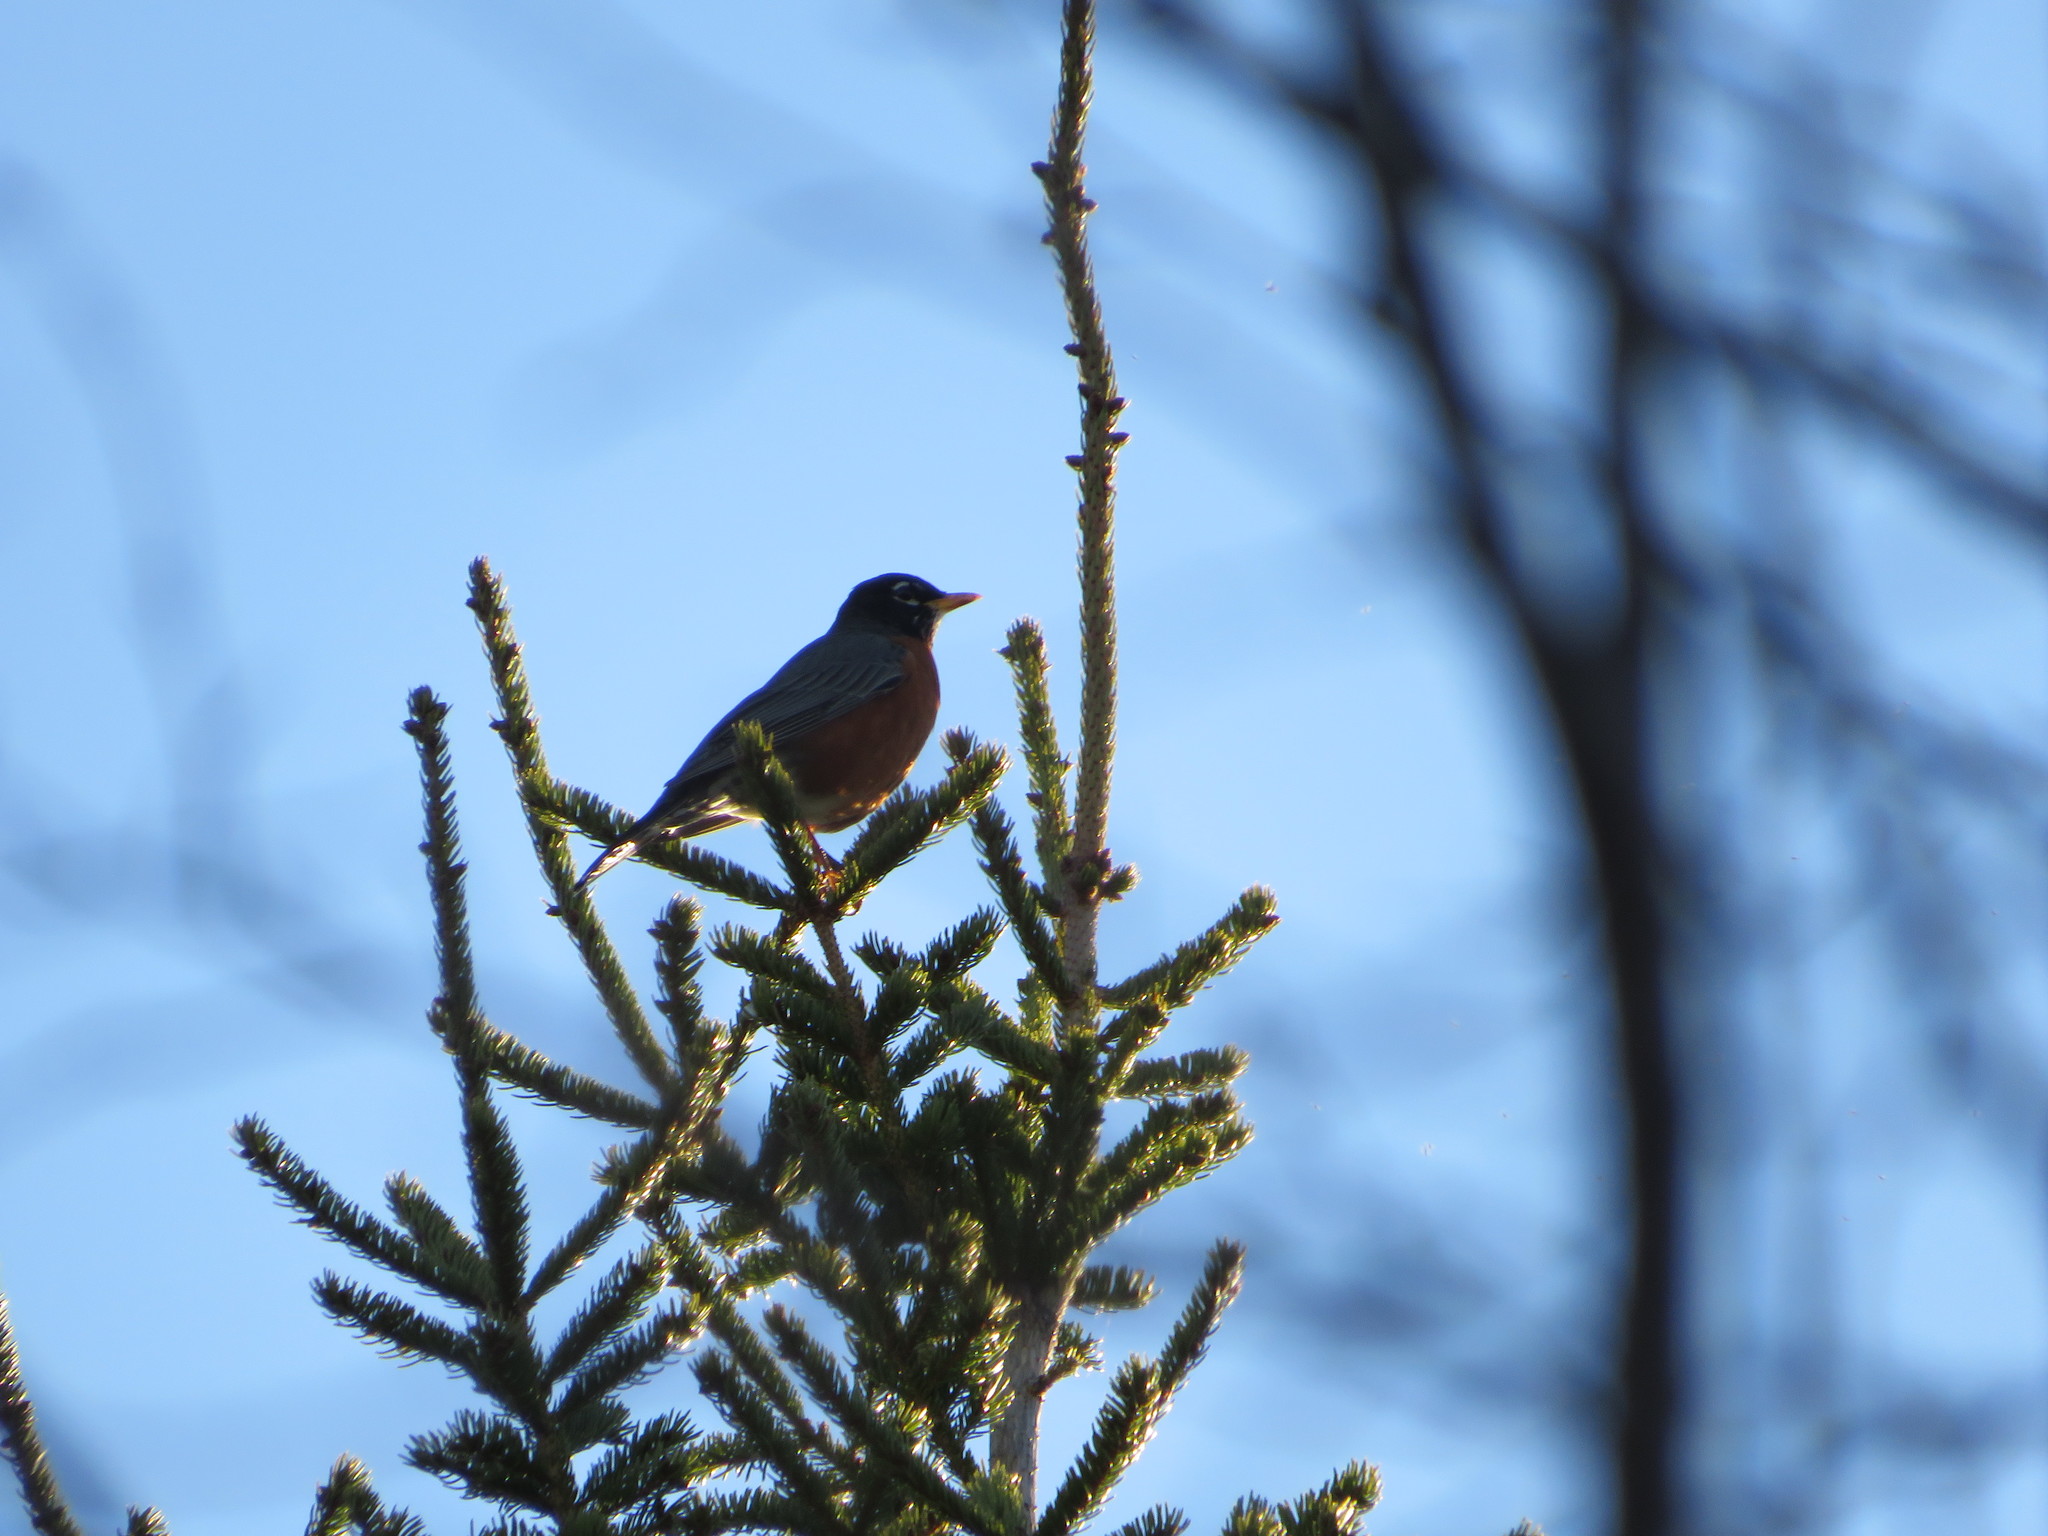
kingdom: Animalia
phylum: Chordata
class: Aves
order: Passeriformes
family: Turdidae
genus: Turdus
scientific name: Turdus migratorius
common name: American robin
